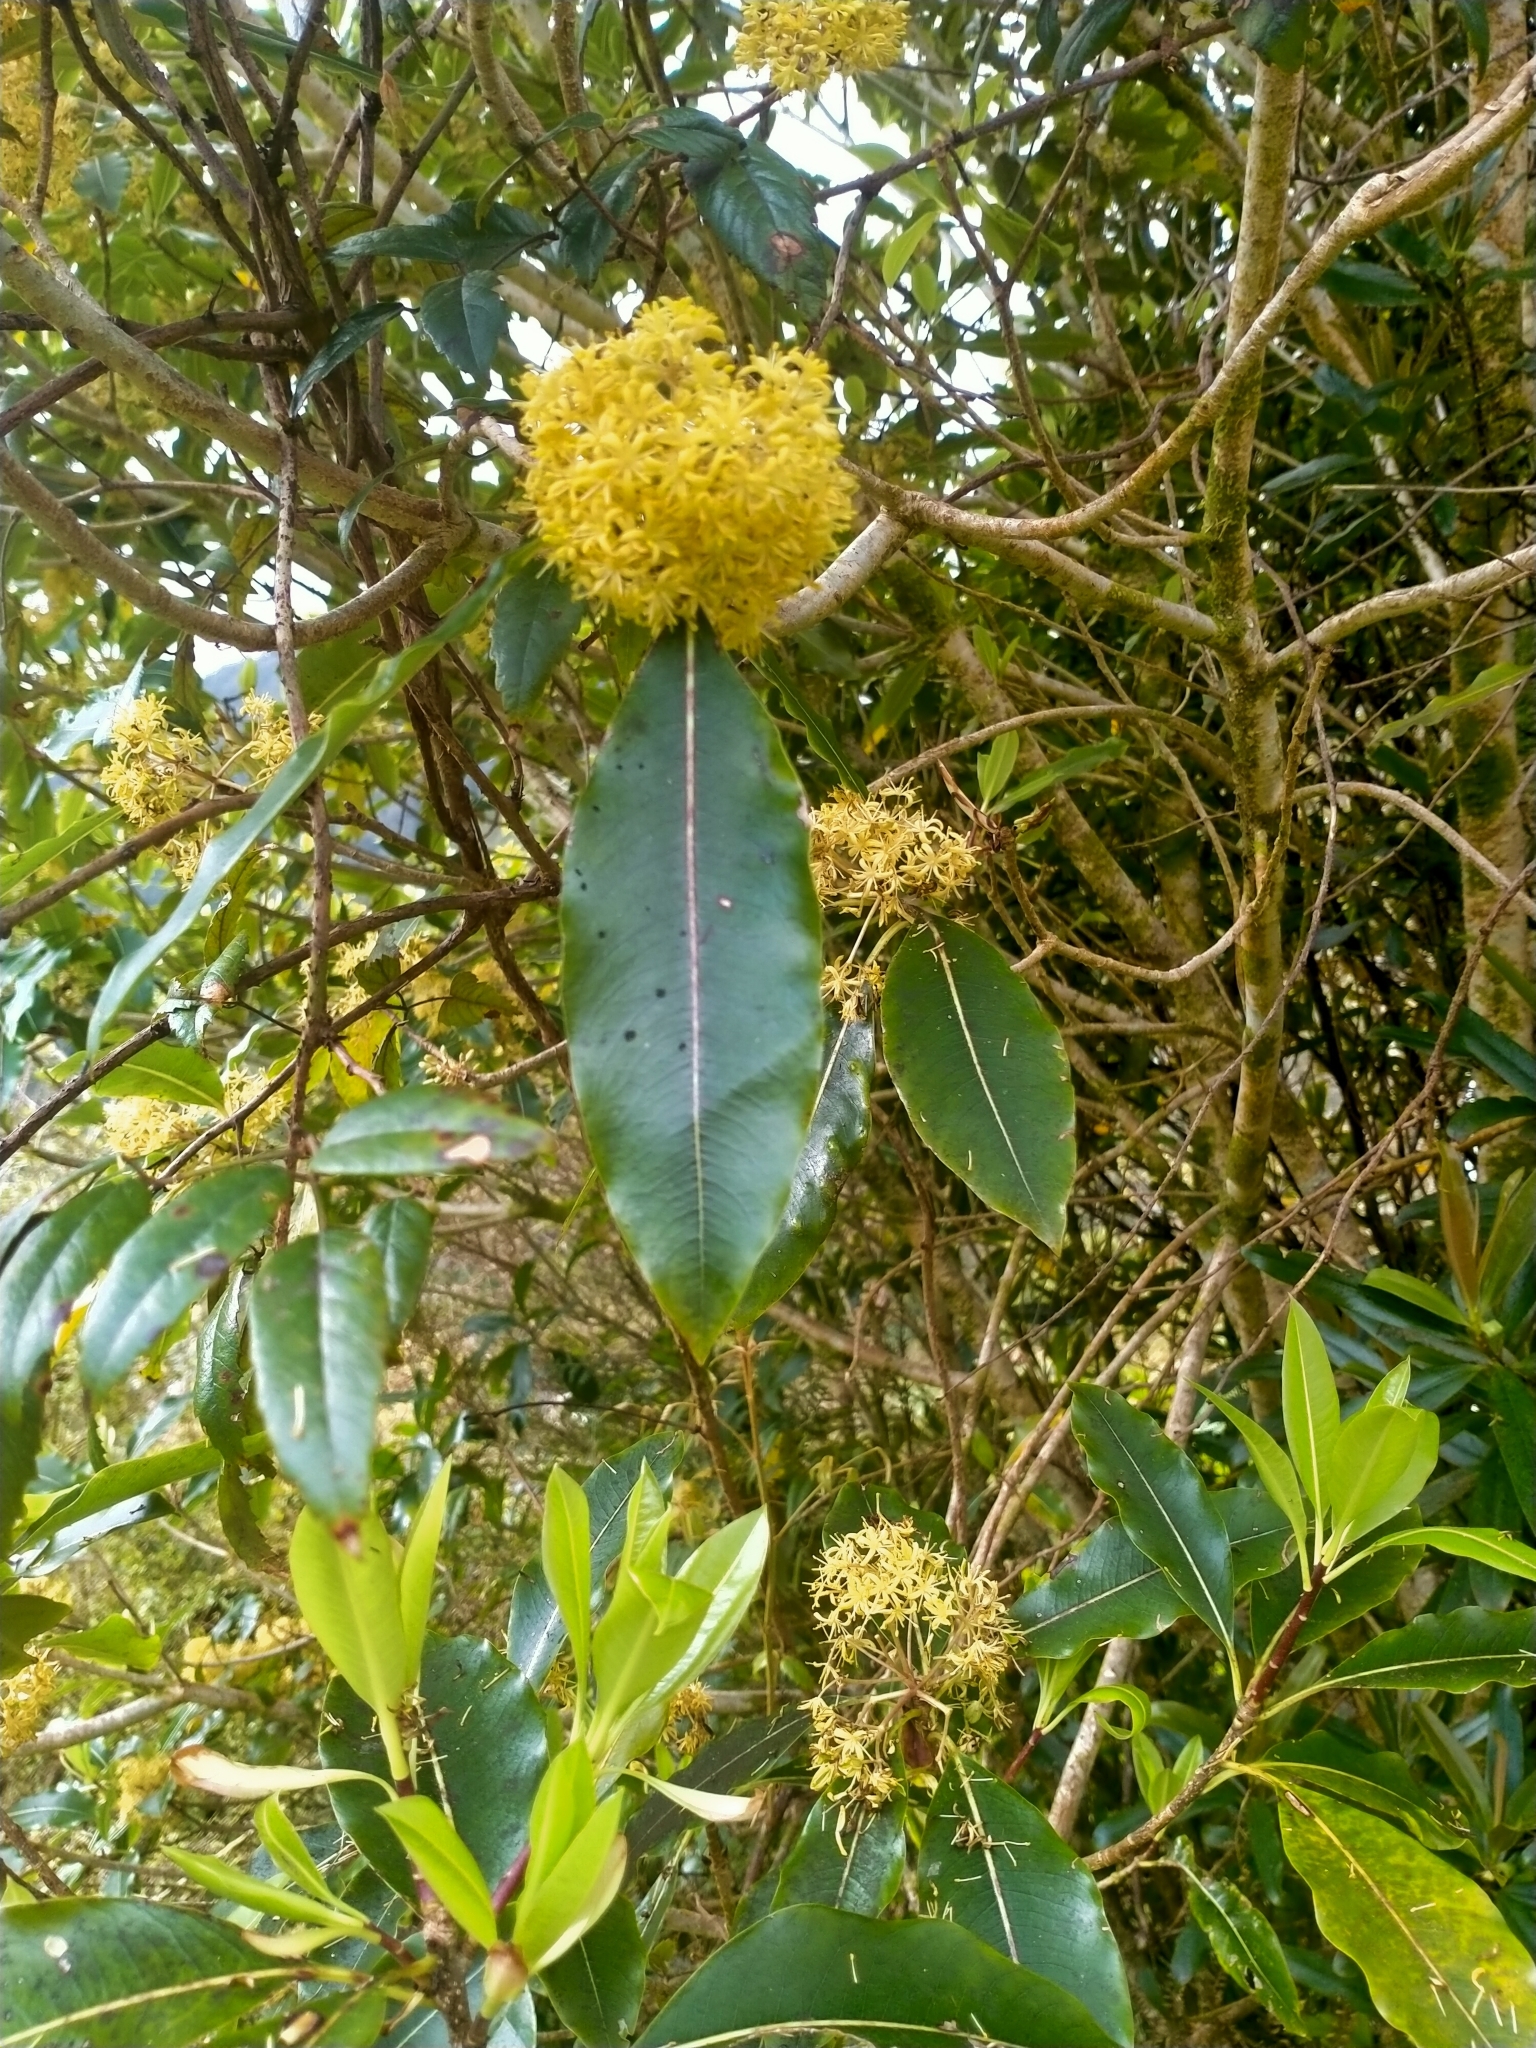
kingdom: Plantae
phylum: Tracheophyta
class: Magnoliopsida
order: Apiales
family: Pittosporaceae
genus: Pittosporum
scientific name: Pittosporum eugenioides
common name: Lemonwood
